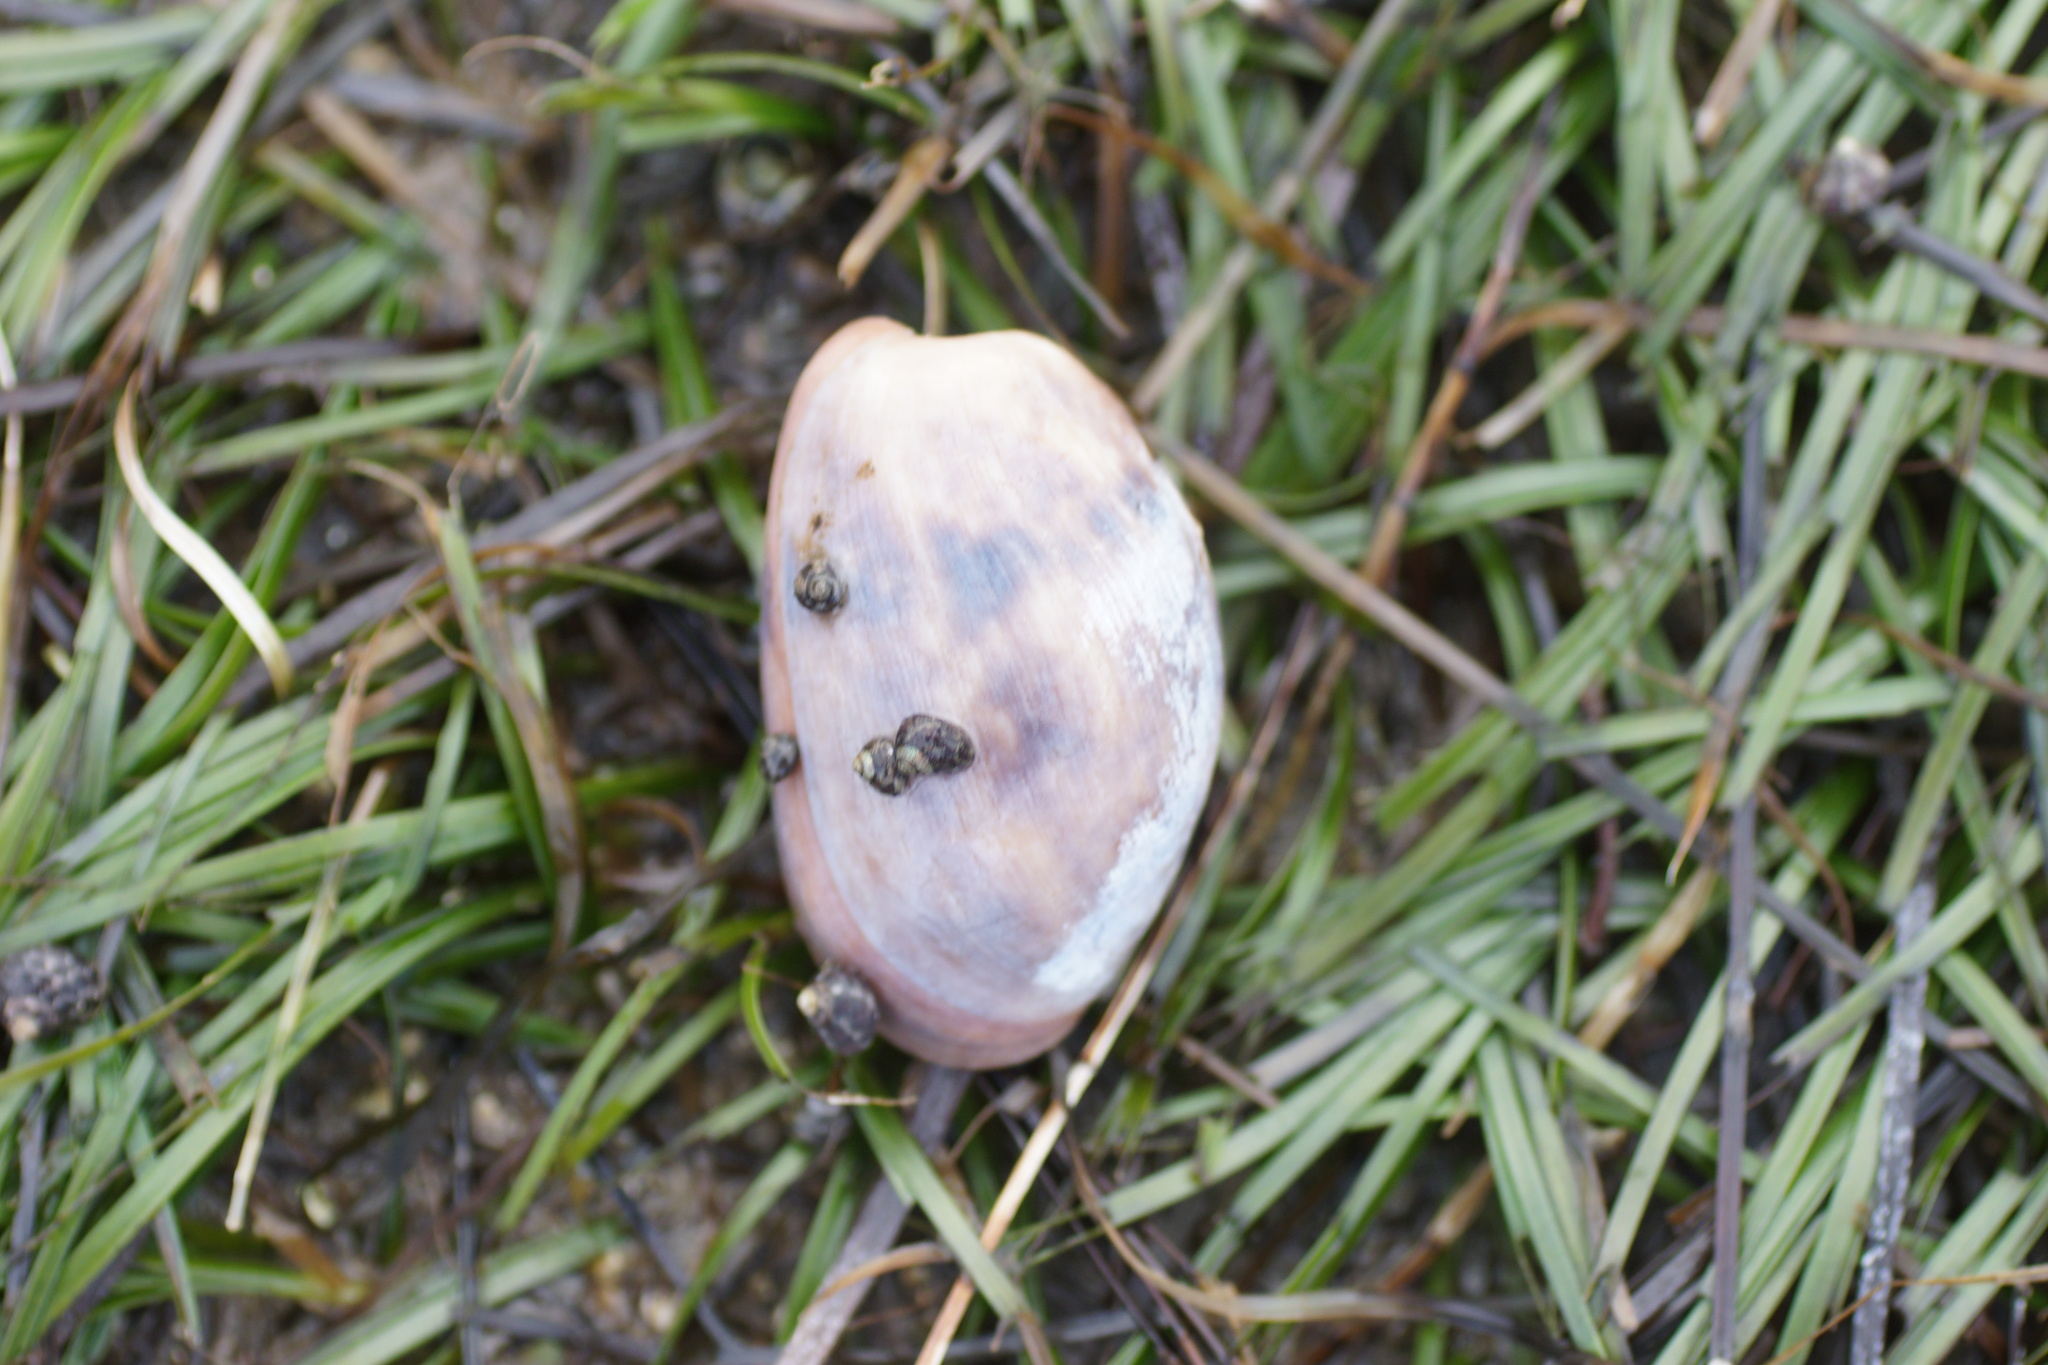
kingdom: Animalia
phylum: Mollusca
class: Gastropoda
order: Cephalaspidea
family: Bullidae
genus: Bulla
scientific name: Bulla quoyii
